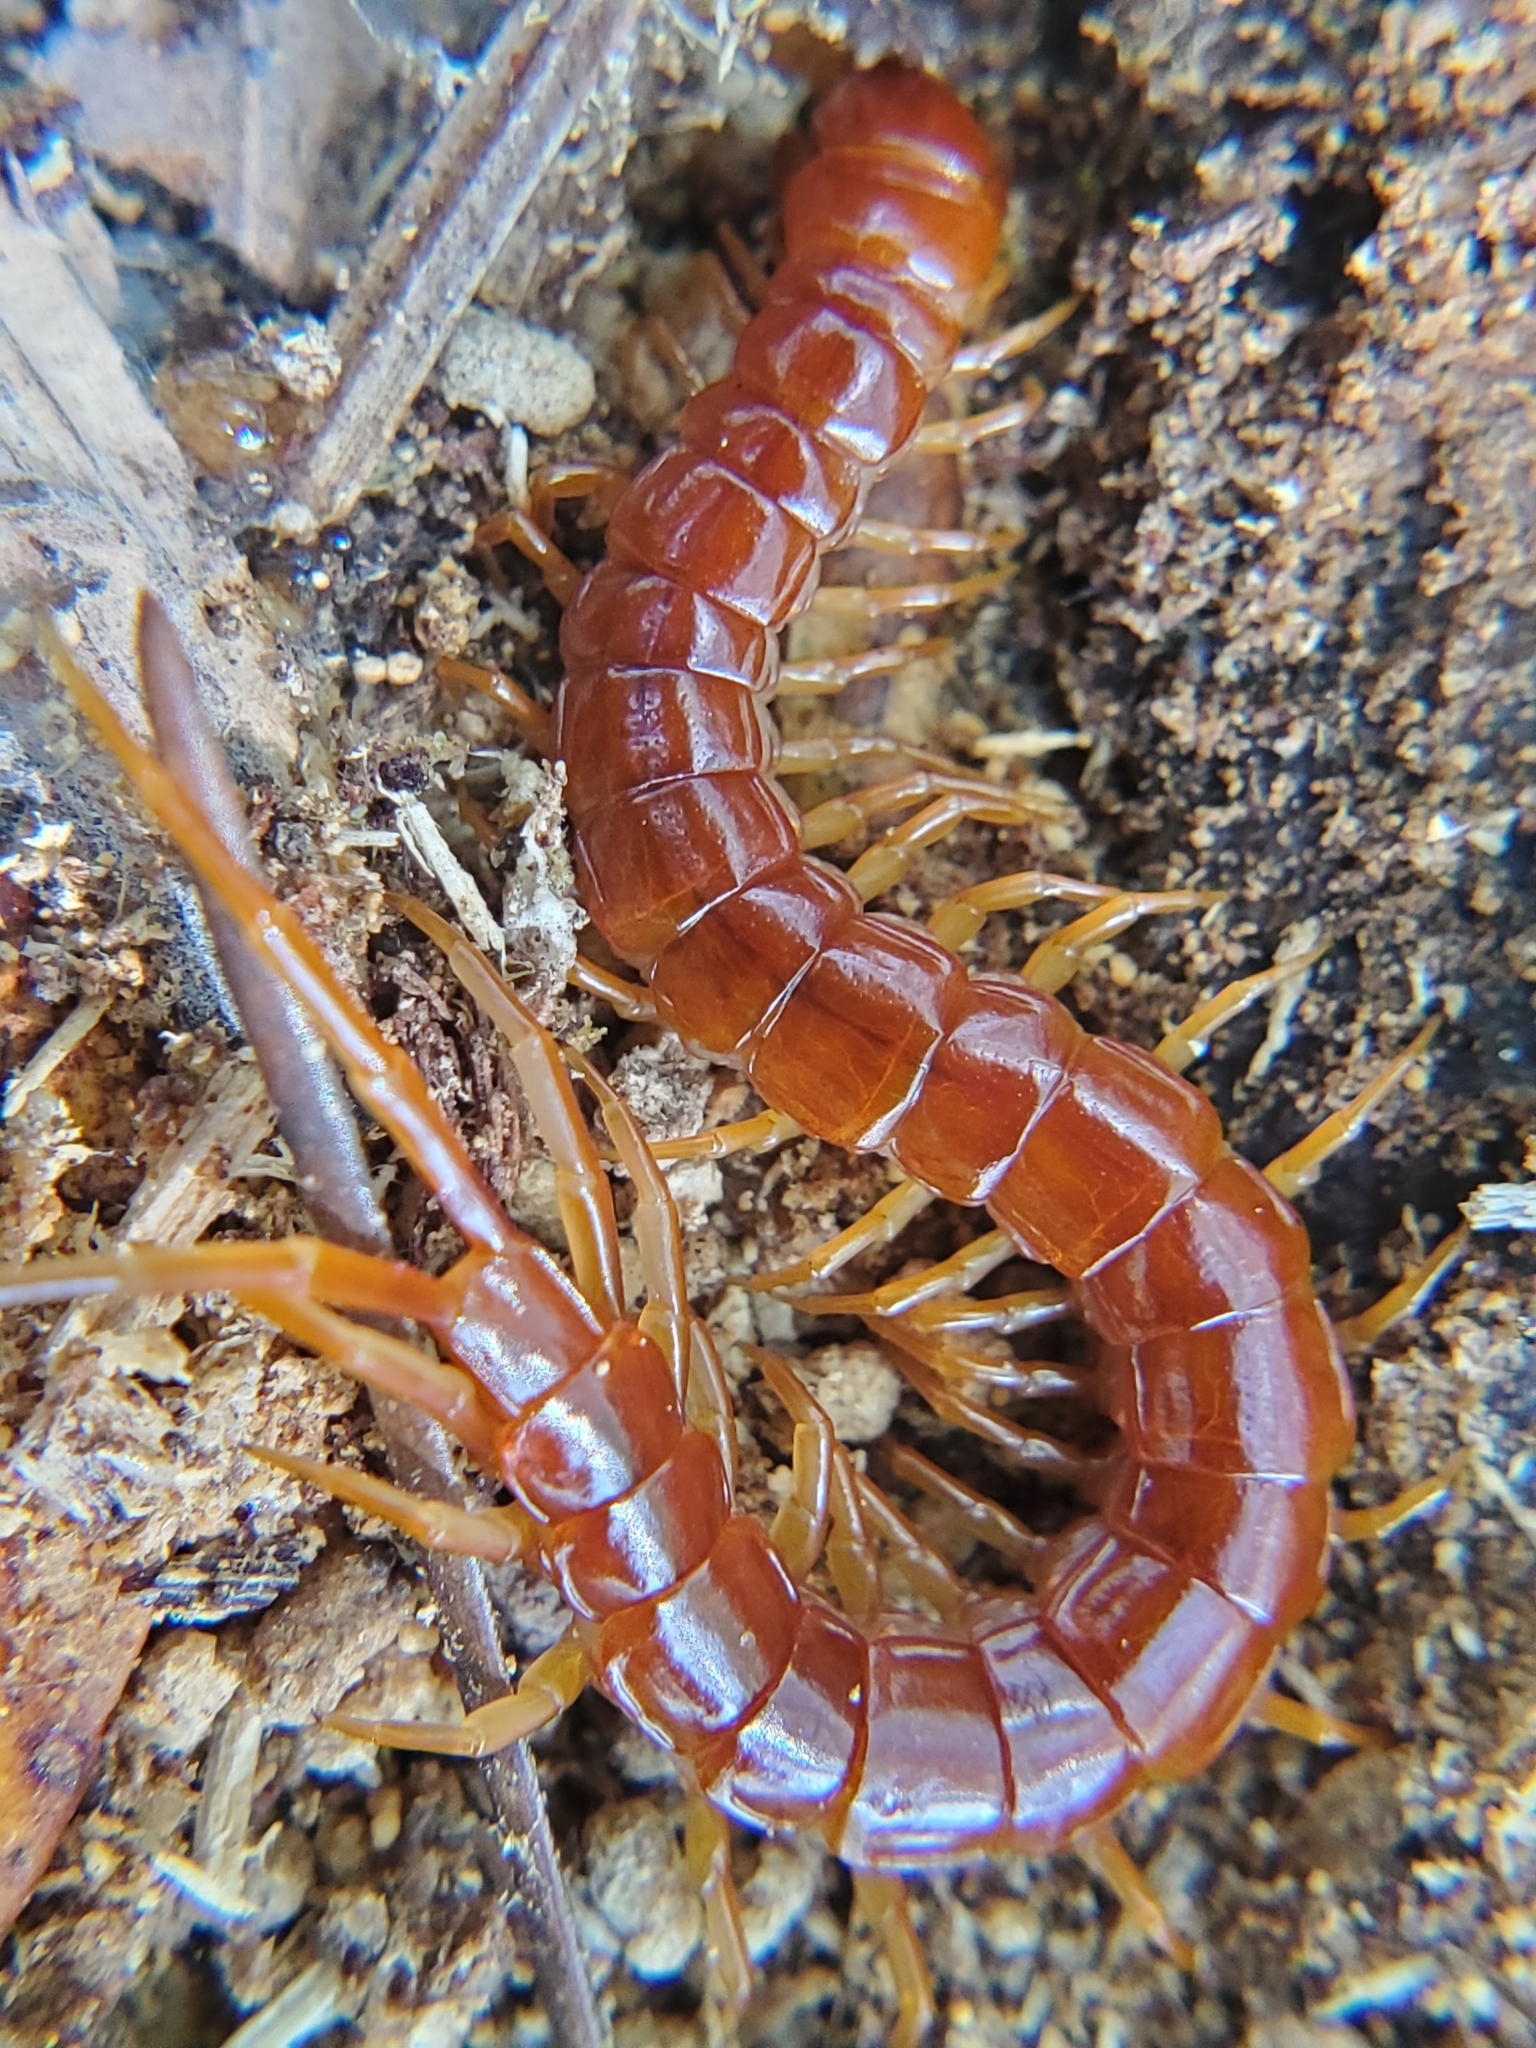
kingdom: Animalia
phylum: Arthropoda
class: Chilopoda
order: Scolopendromorpha
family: Scolopocryptopidae
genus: Scolopocryptops
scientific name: Scolopocryptops sexspinosus
